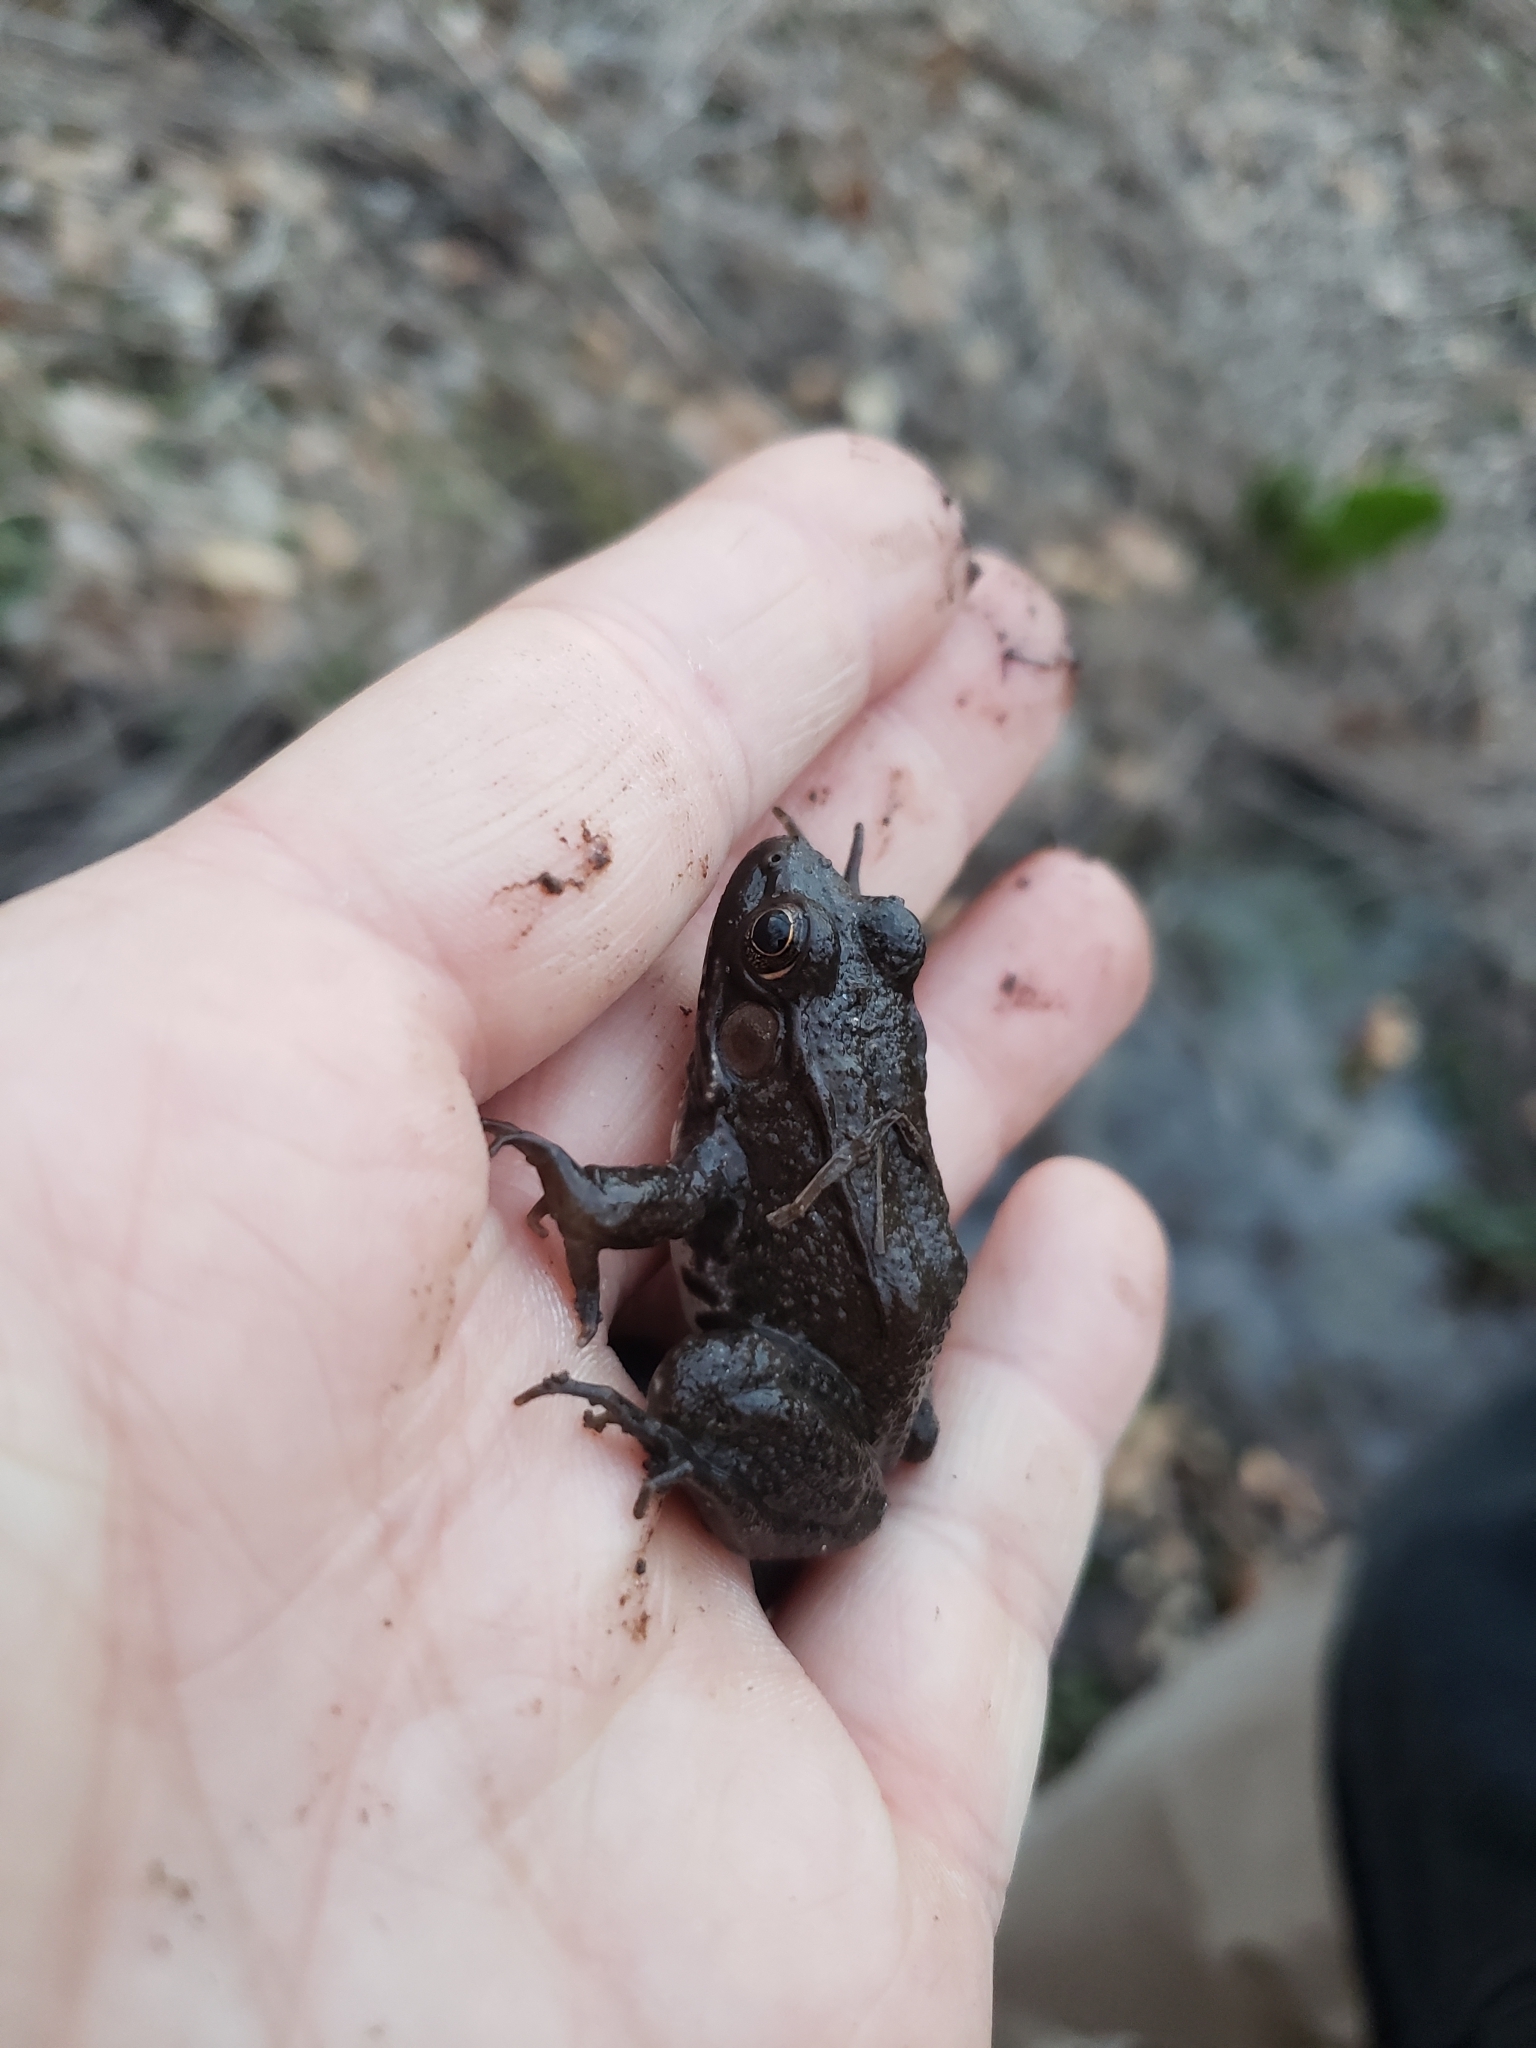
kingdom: Animalia
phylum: Chordata
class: Amphibia
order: Anura
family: Ranidae
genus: Lithobates
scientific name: Lithobates clamitans
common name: Green frog
